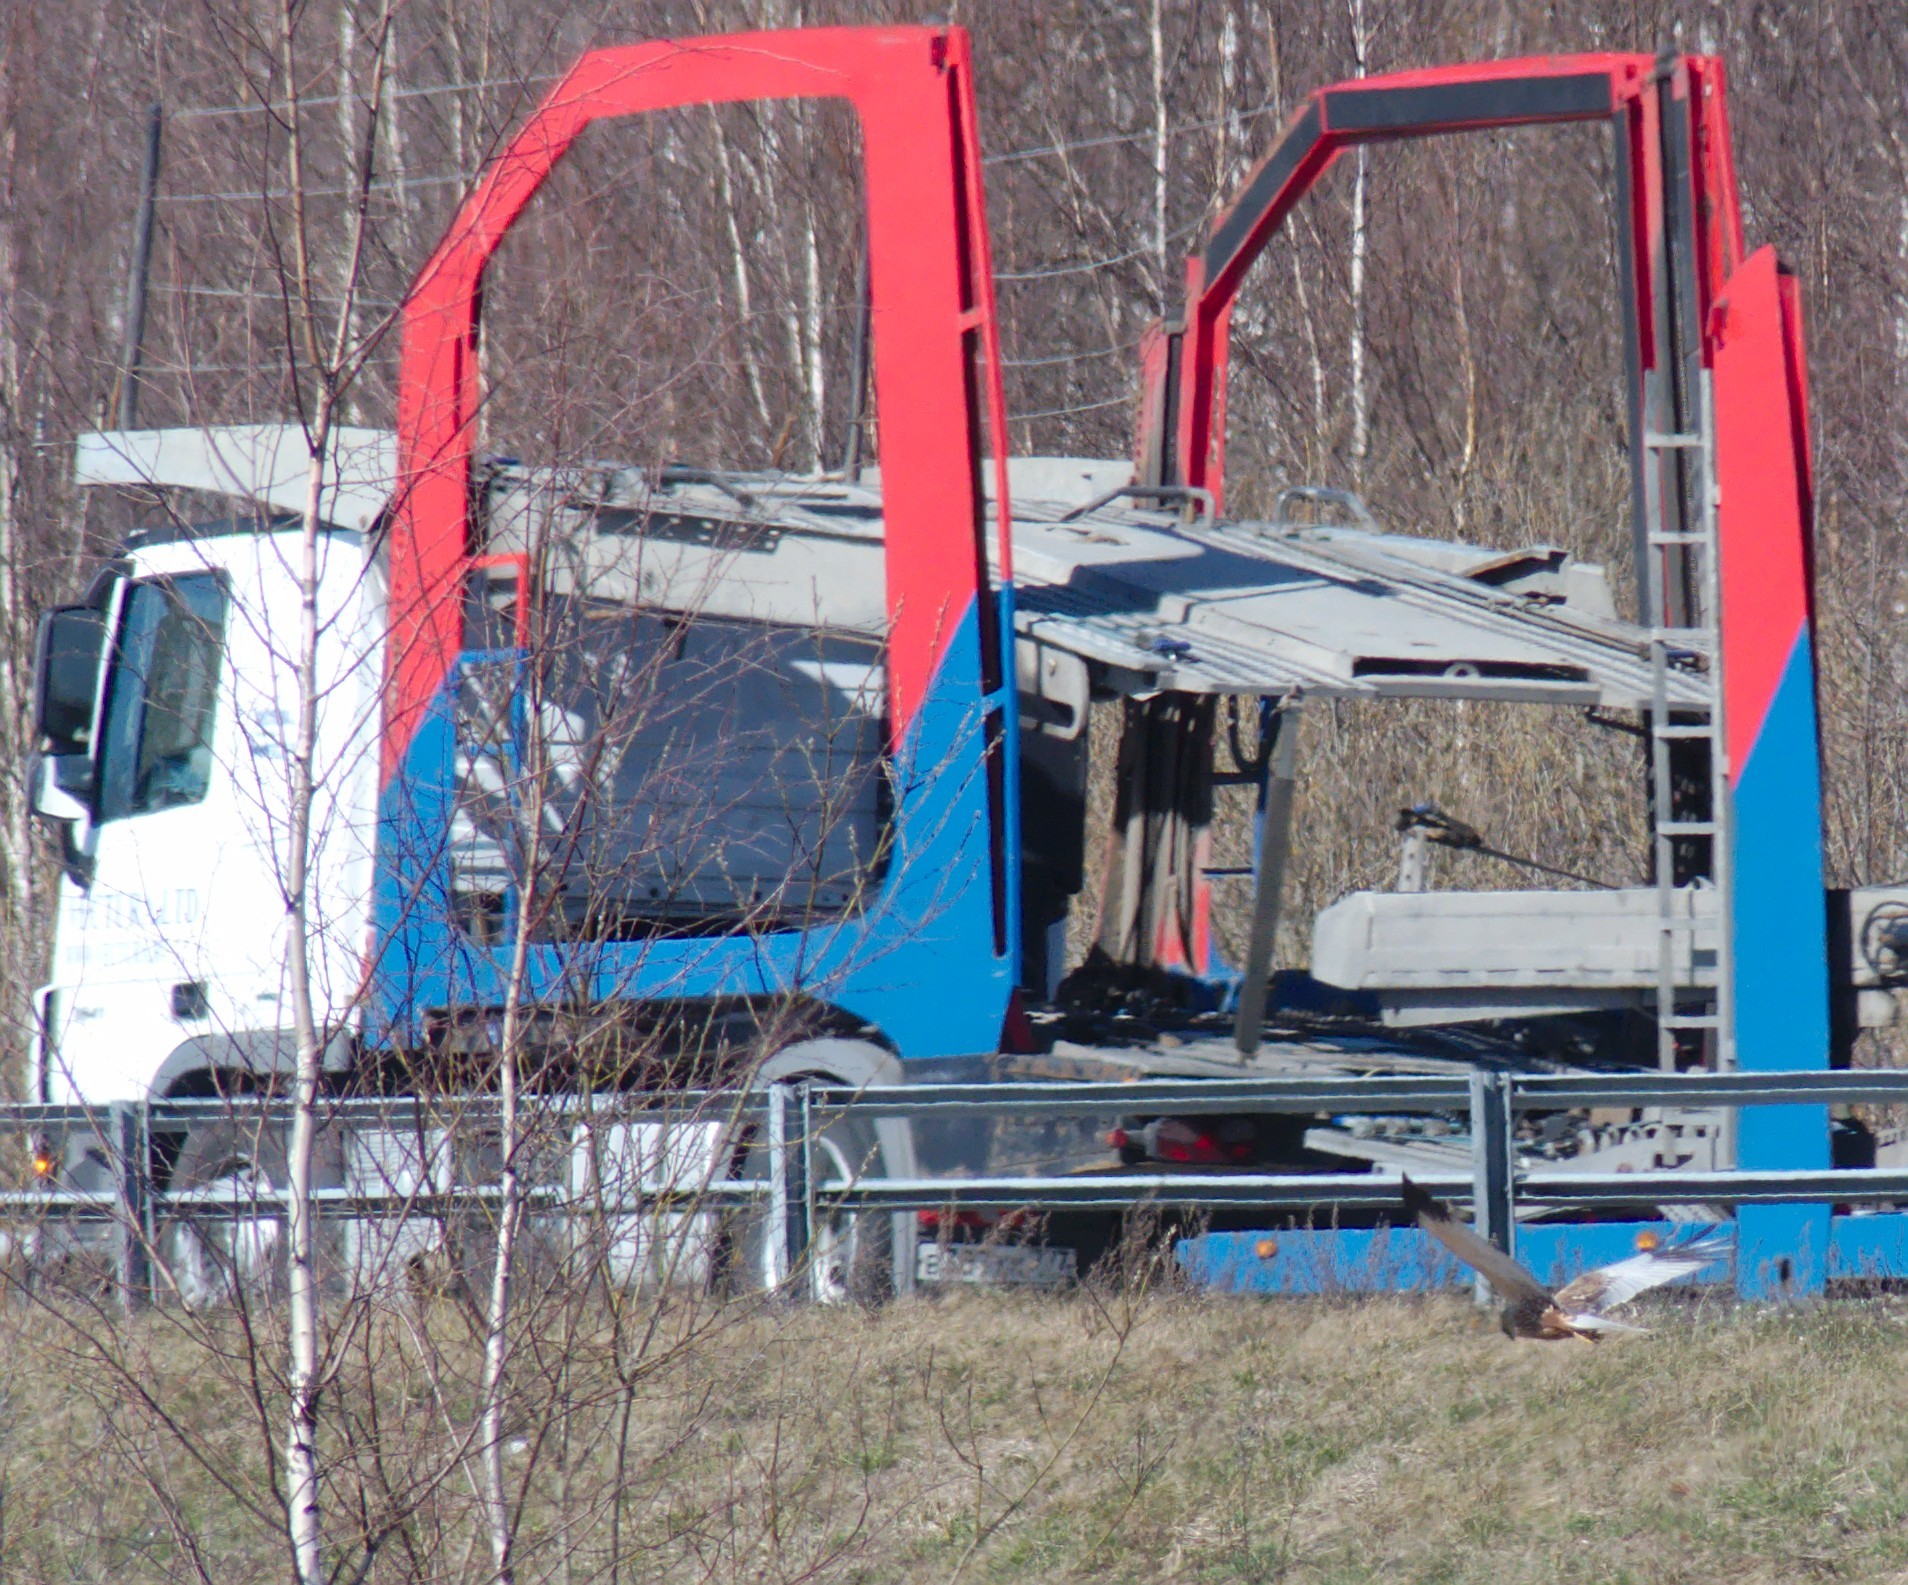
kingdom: Animalia
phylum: Chordata
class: Aves
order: Accipitriformes
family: Accipitridae
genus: Circus
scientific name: Circus aeruginosus
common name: Western marsh harrier
